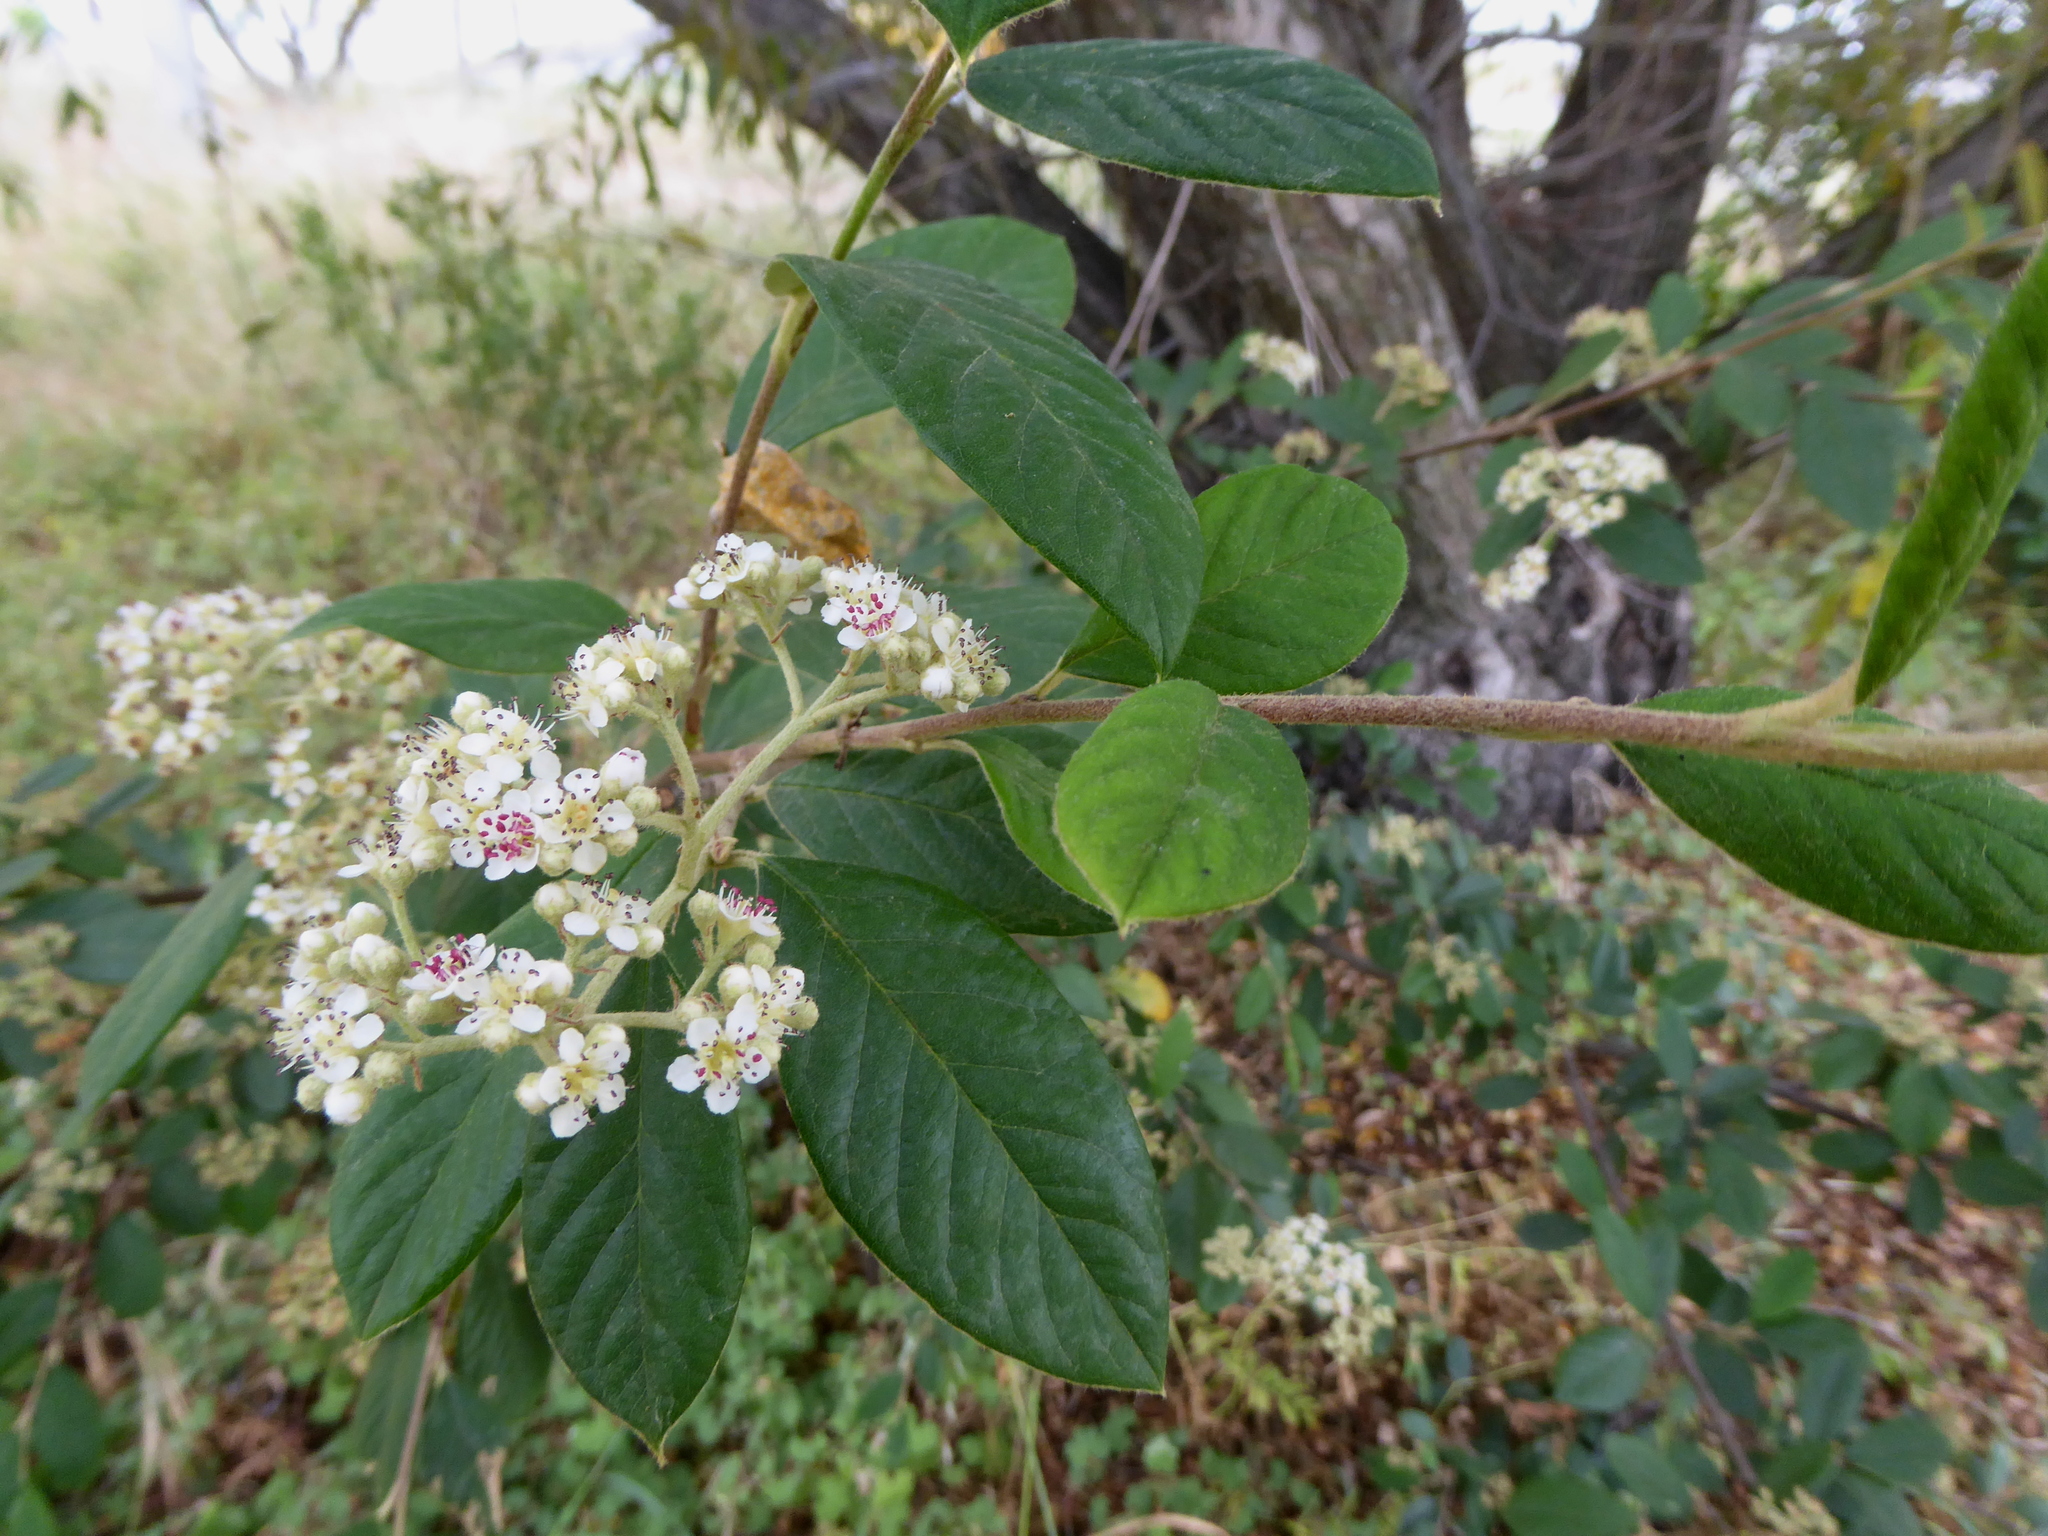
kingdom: Plantae
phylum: Tracheophyta
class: Magnoliopsida
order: Rosales
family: Rosaceae
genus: Cotoneaster
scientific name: Cotoneaster coriaceus
